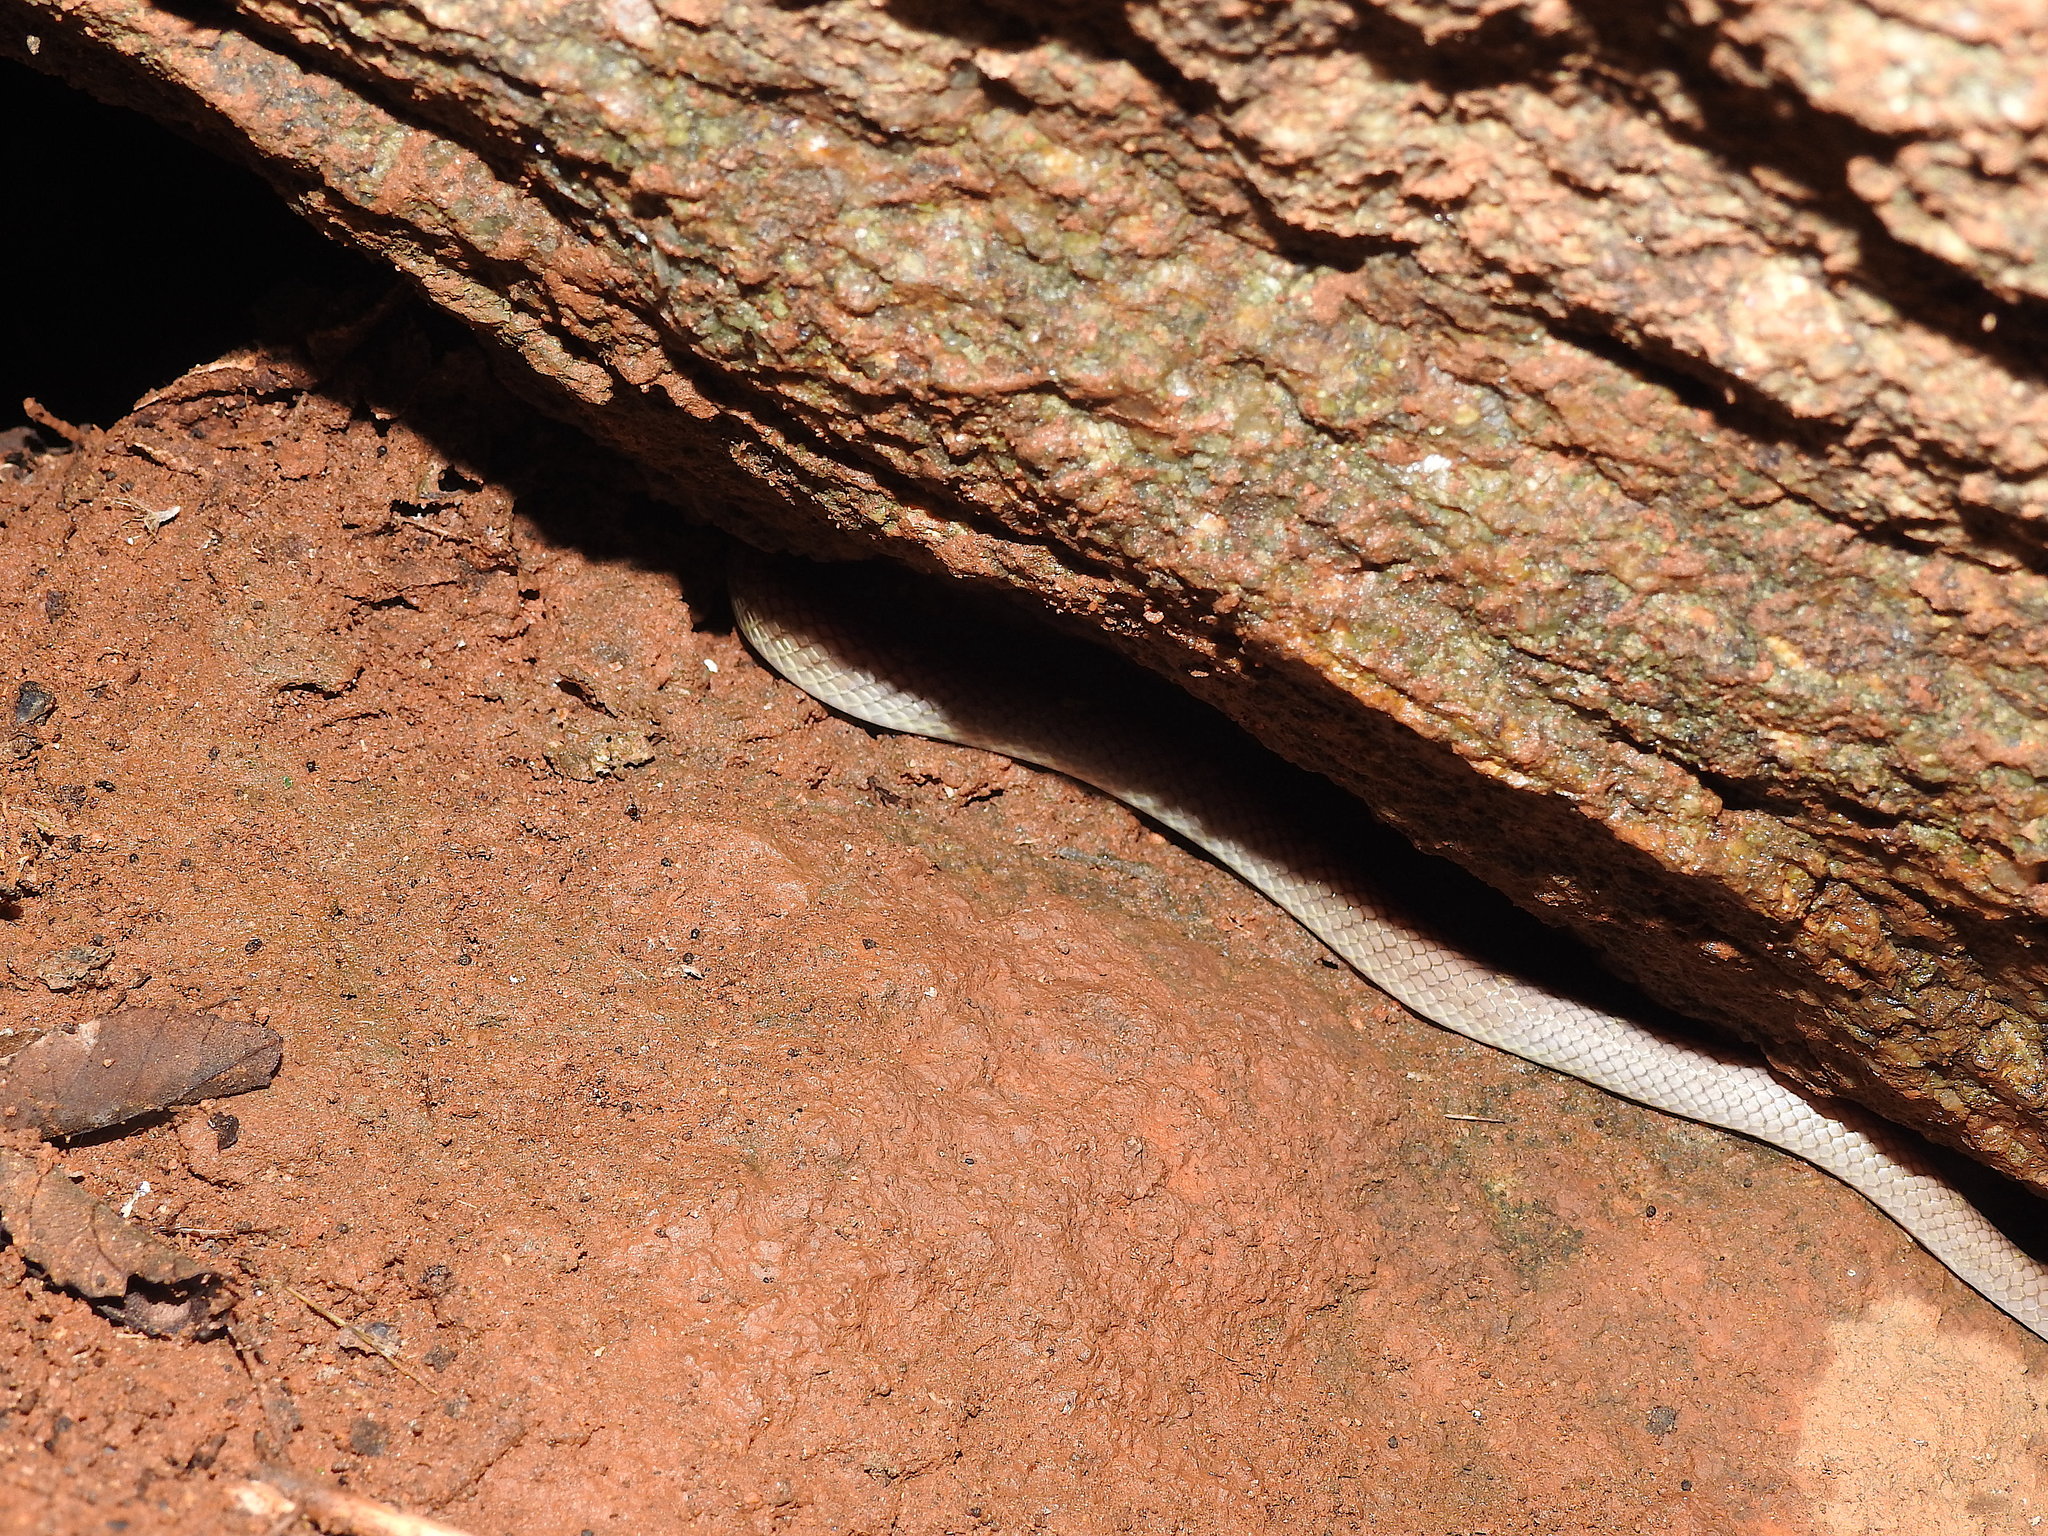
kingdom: Animalia
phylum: Chordata
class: Squamata
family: Colubridae
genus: Lycodon
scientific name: Lycodon fasciolatus
